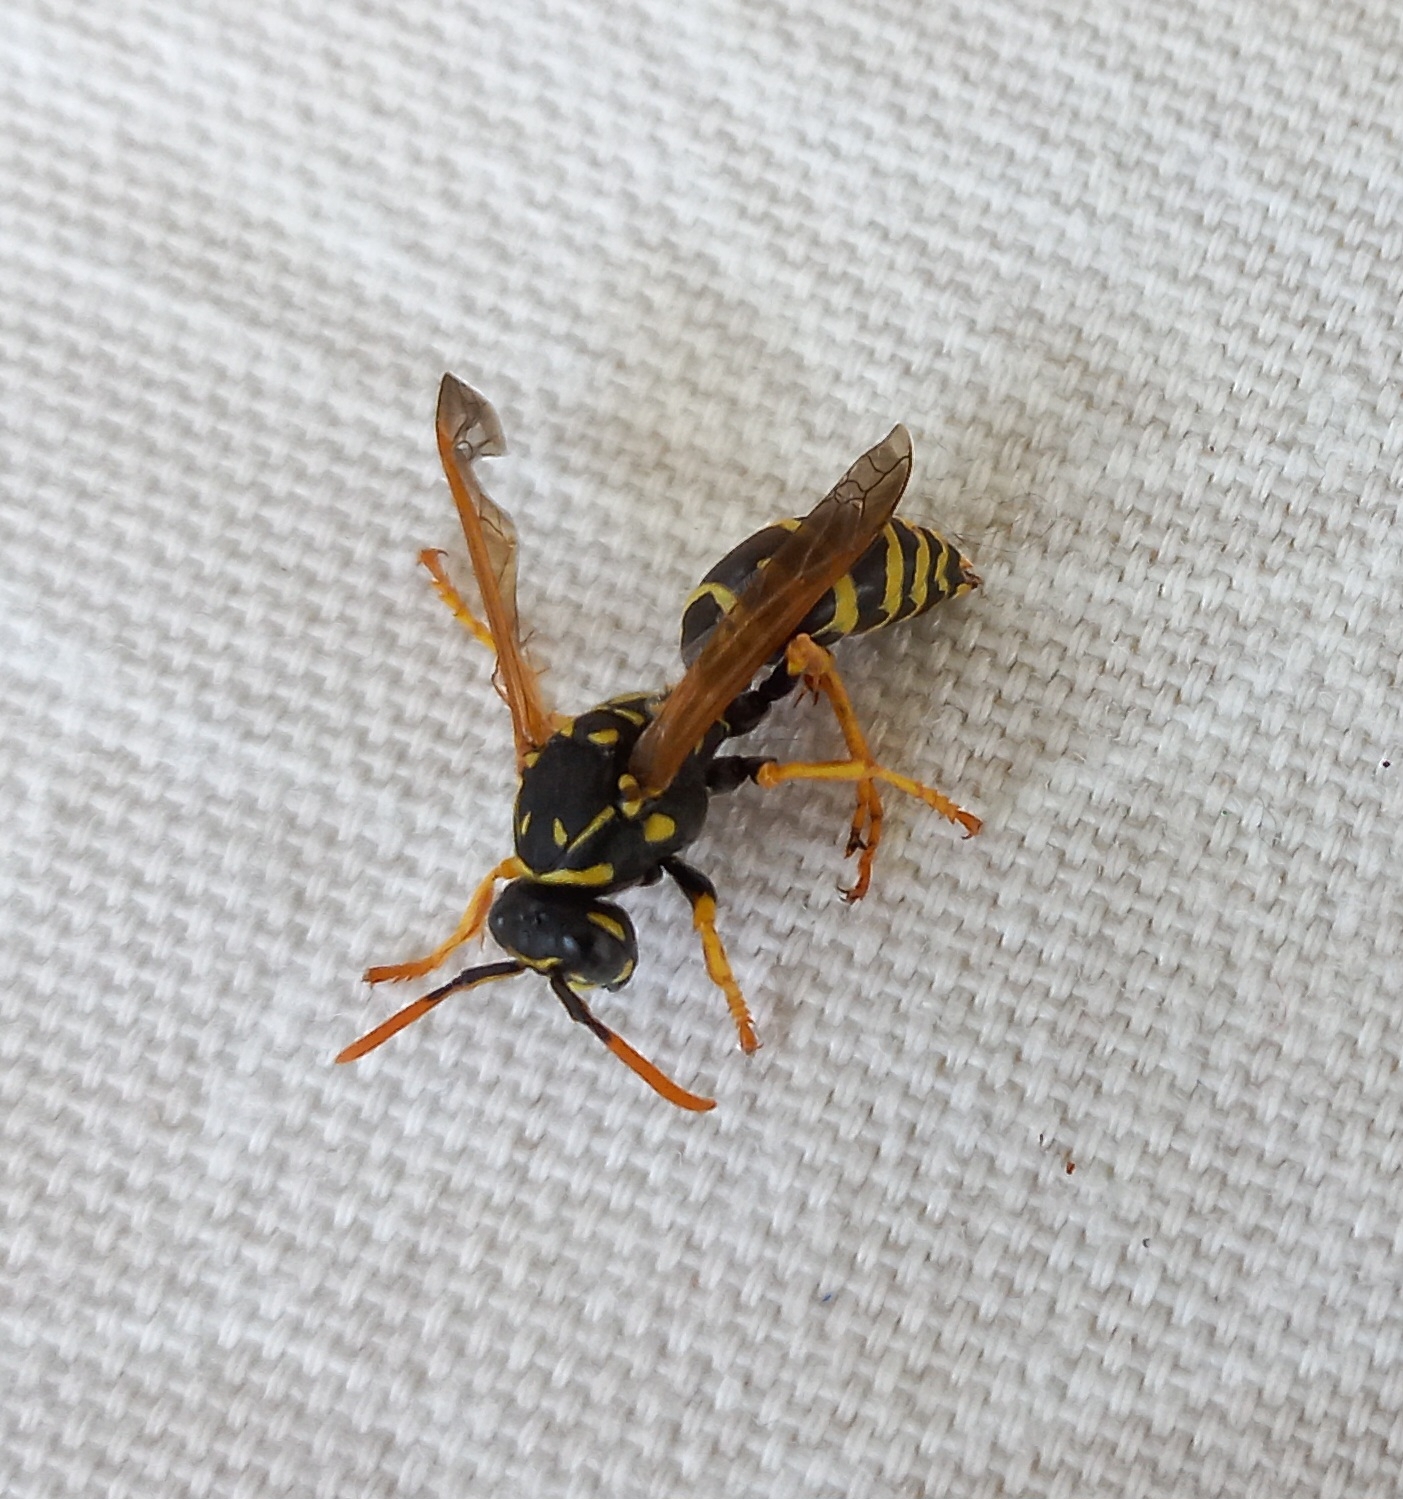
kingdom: Animalia
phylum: Arthropoda
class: Insecta
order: Hymenoptera
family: Eumenidae
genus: Polistes
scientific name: Polistes dominula
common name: Paper wasp
